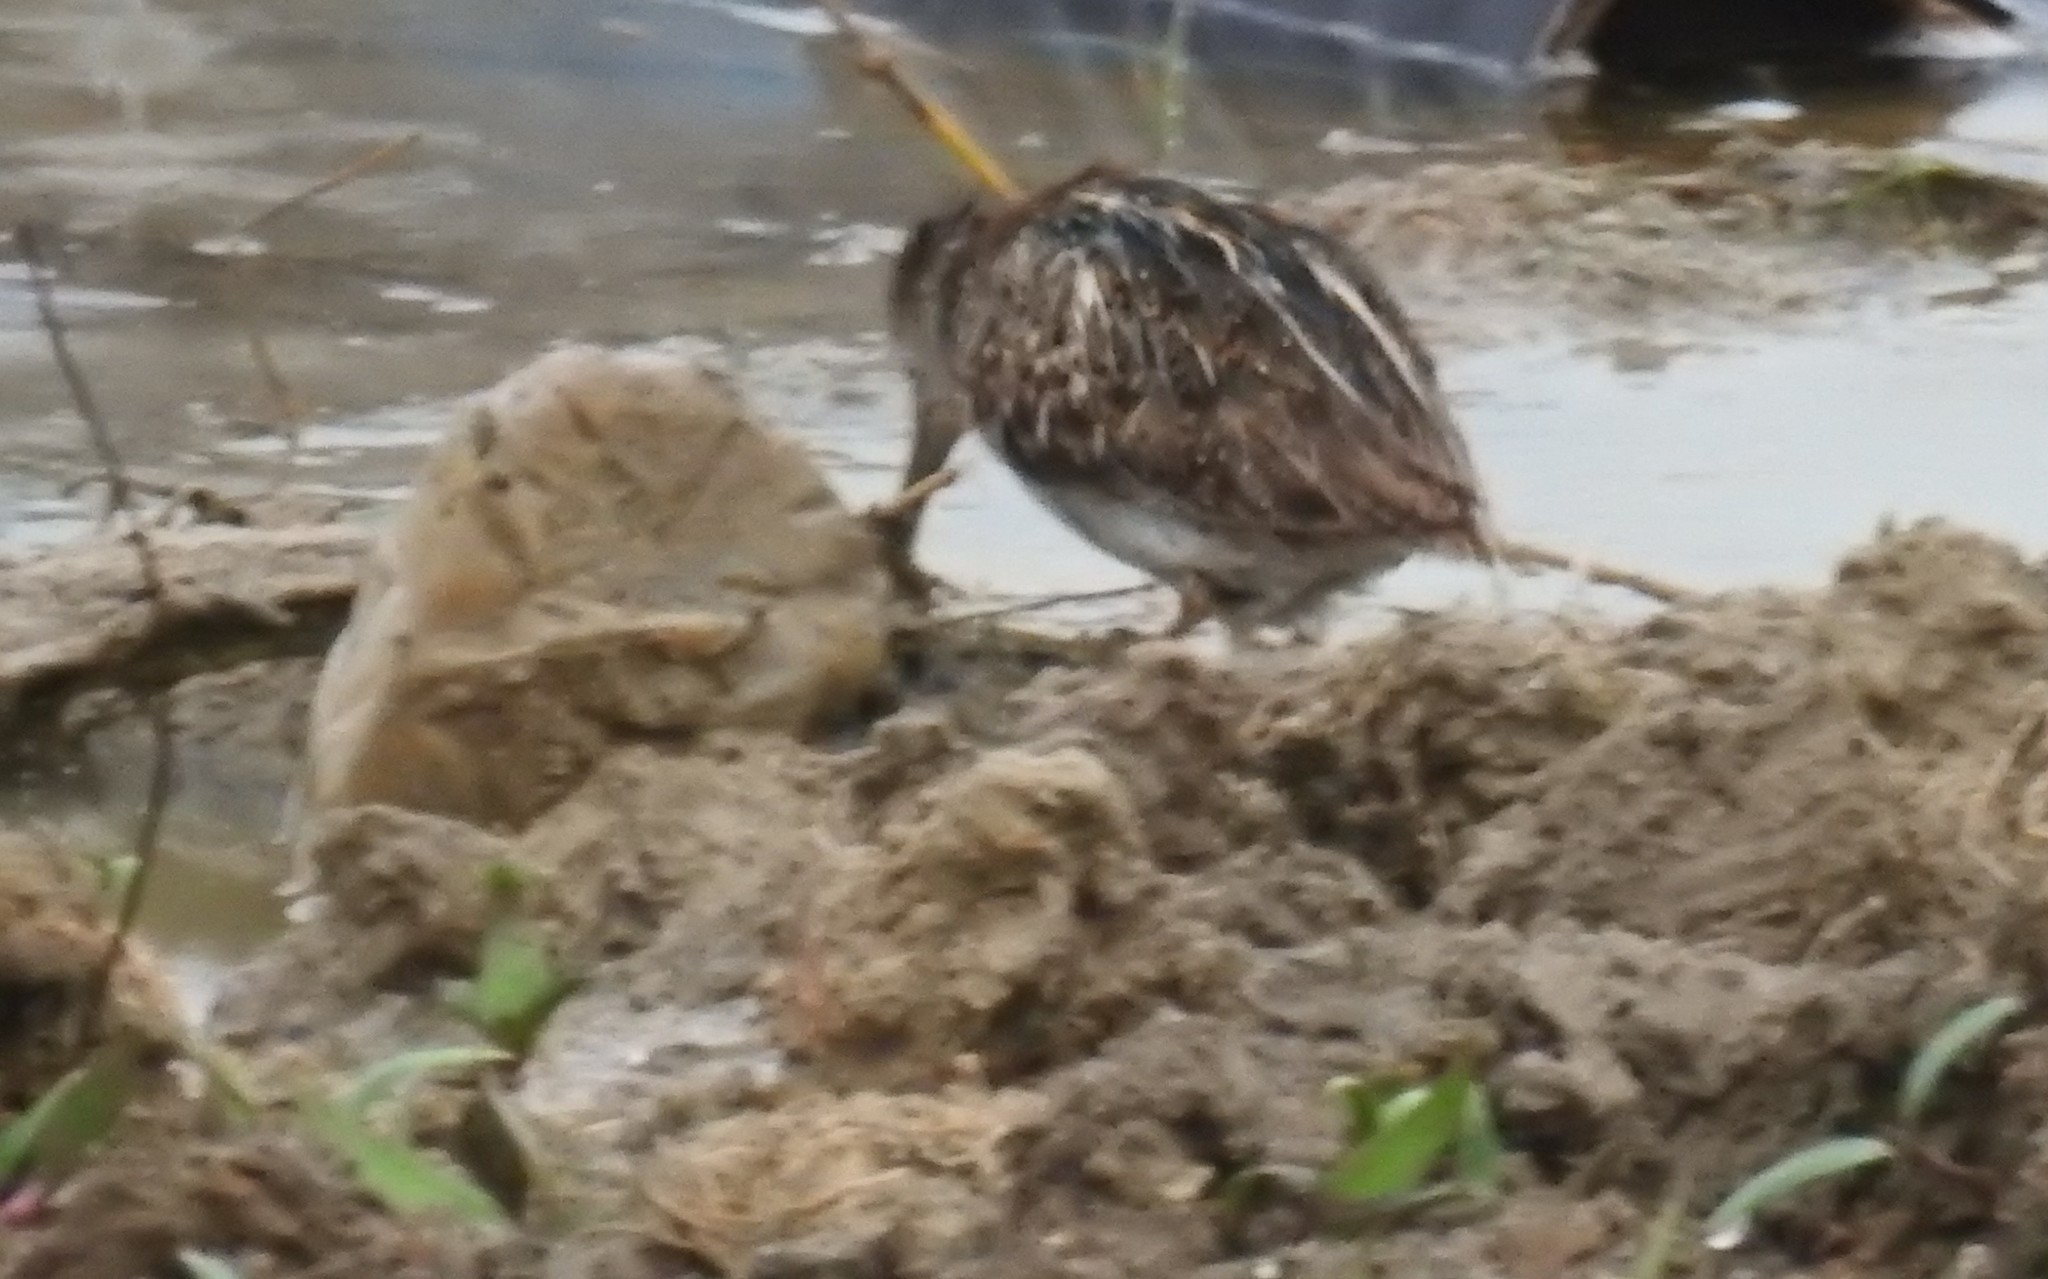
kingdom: Animalia
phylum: Chordata
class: Aves
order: Charadriiformes
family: Scolopacidae
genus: Lymnocryptes
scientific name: Lymnocryptes minimus
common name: Jack snipe
